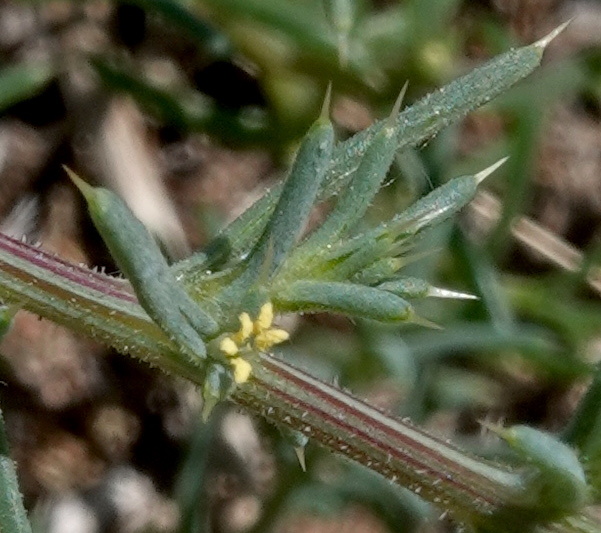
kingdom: Plantae
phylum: Tracheophyta
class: Magnoliopsida
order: Caryophyllales
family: Amaranthaceae
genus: Salsola
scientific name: Salsola tragus
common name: Prickly russian thistle
